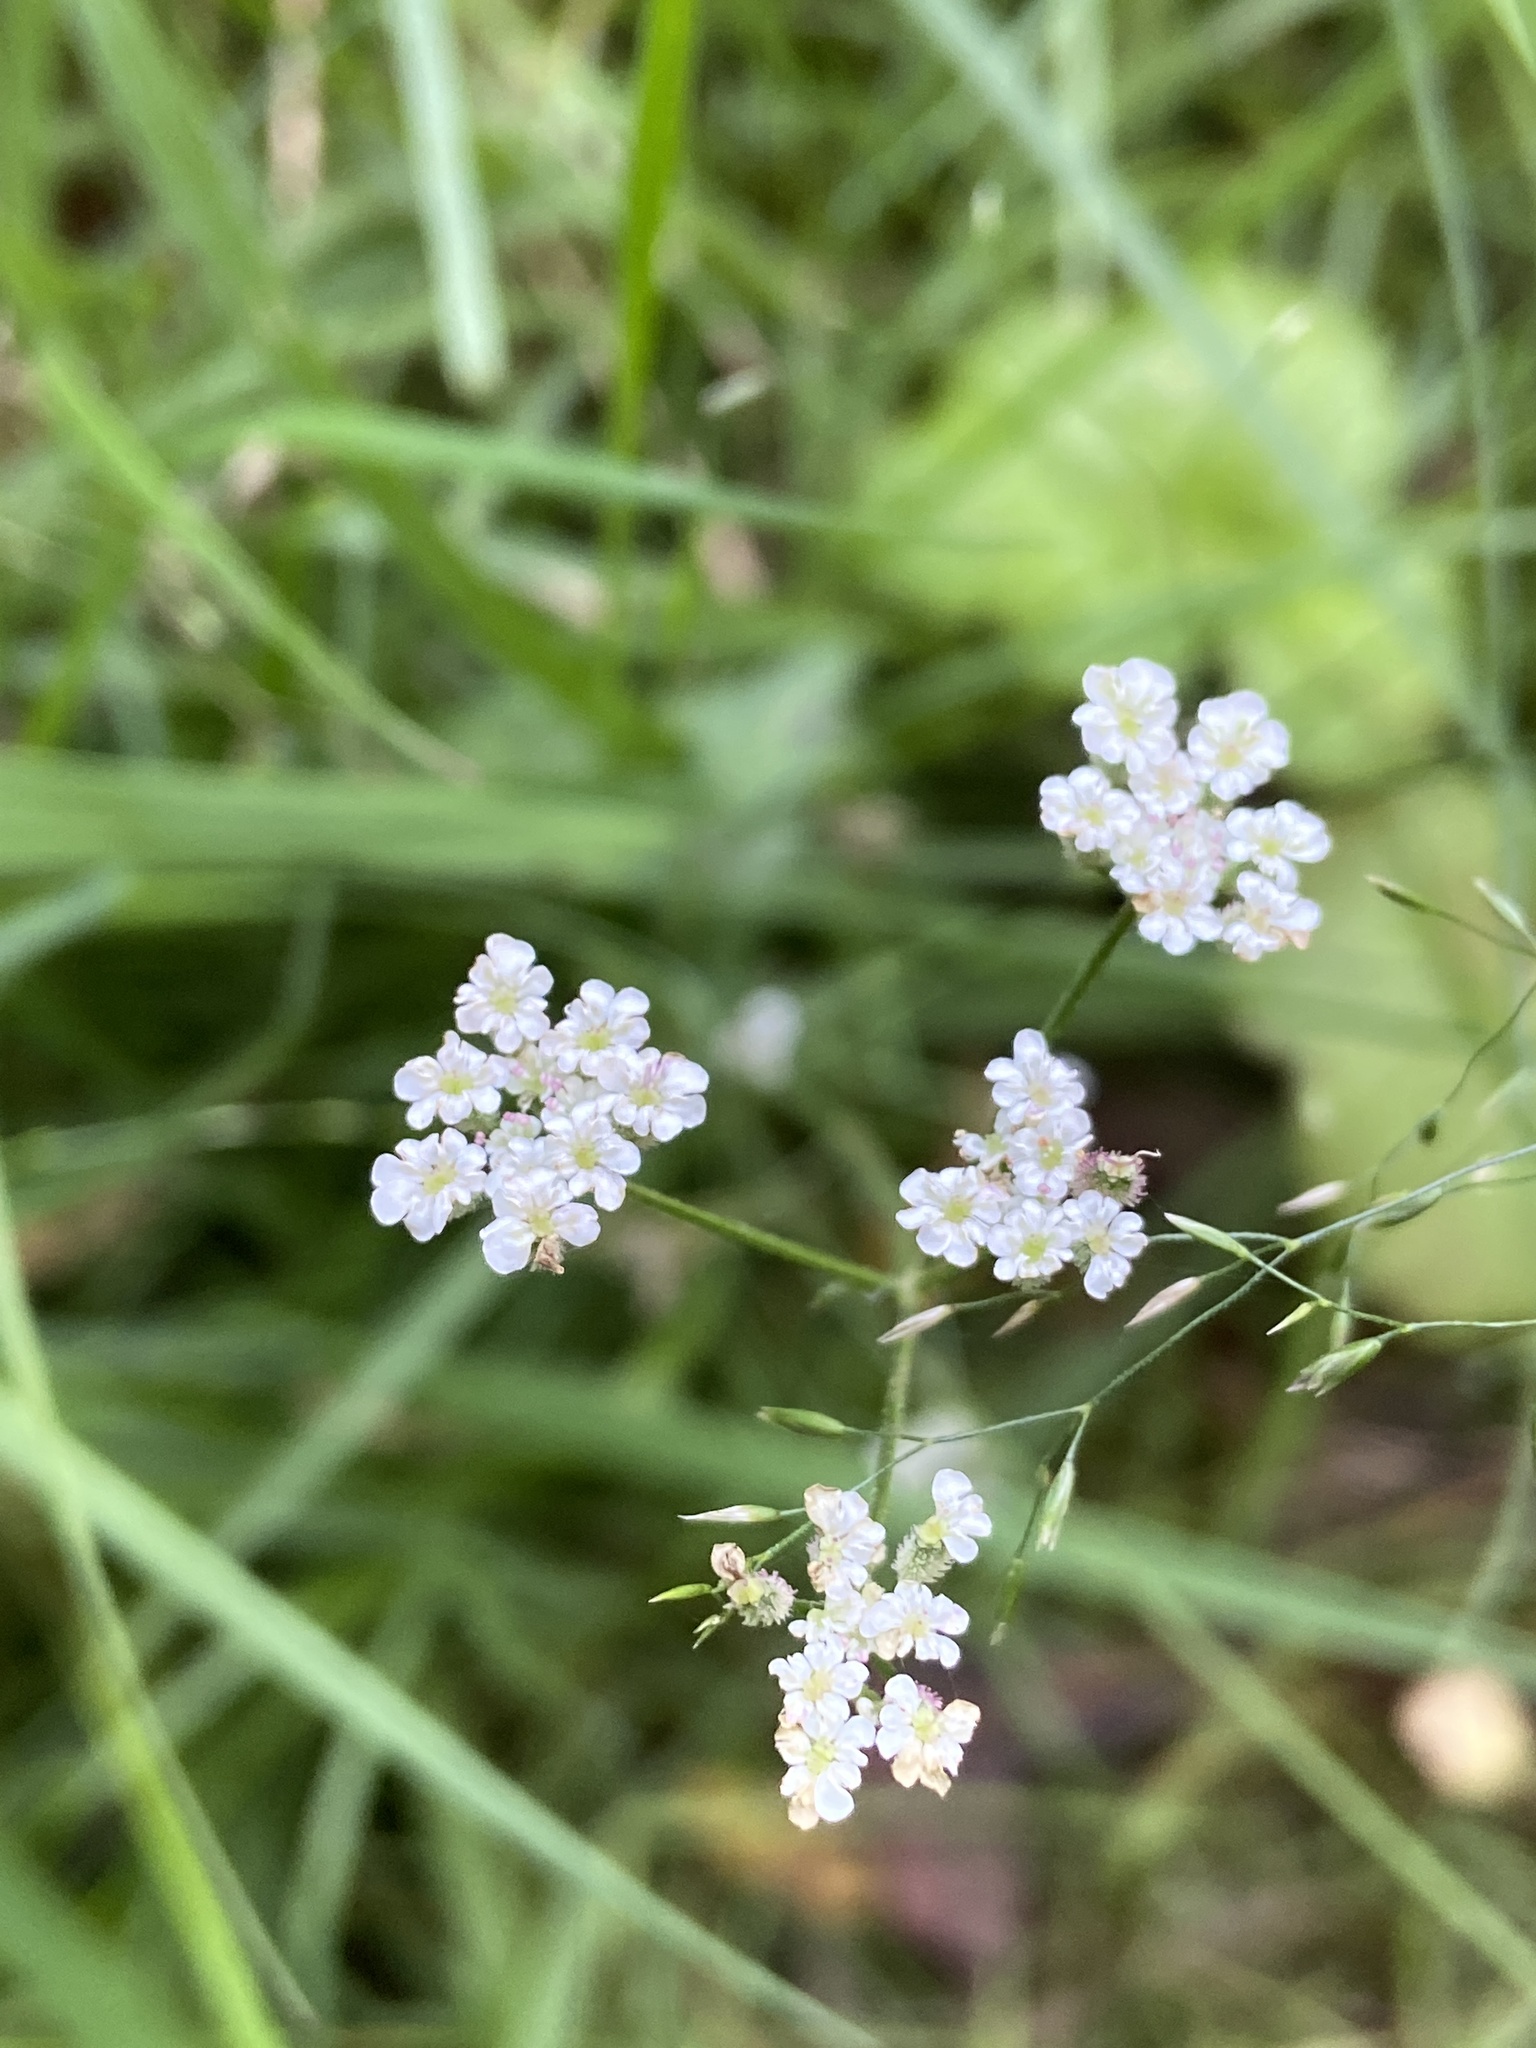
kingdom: Plantae
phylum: Tracheophyta
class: Magnoliopsida
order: Apiales
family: Apiaceae
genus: Torilis
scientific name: Torilis japonica
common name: Upright hedge-parsley
